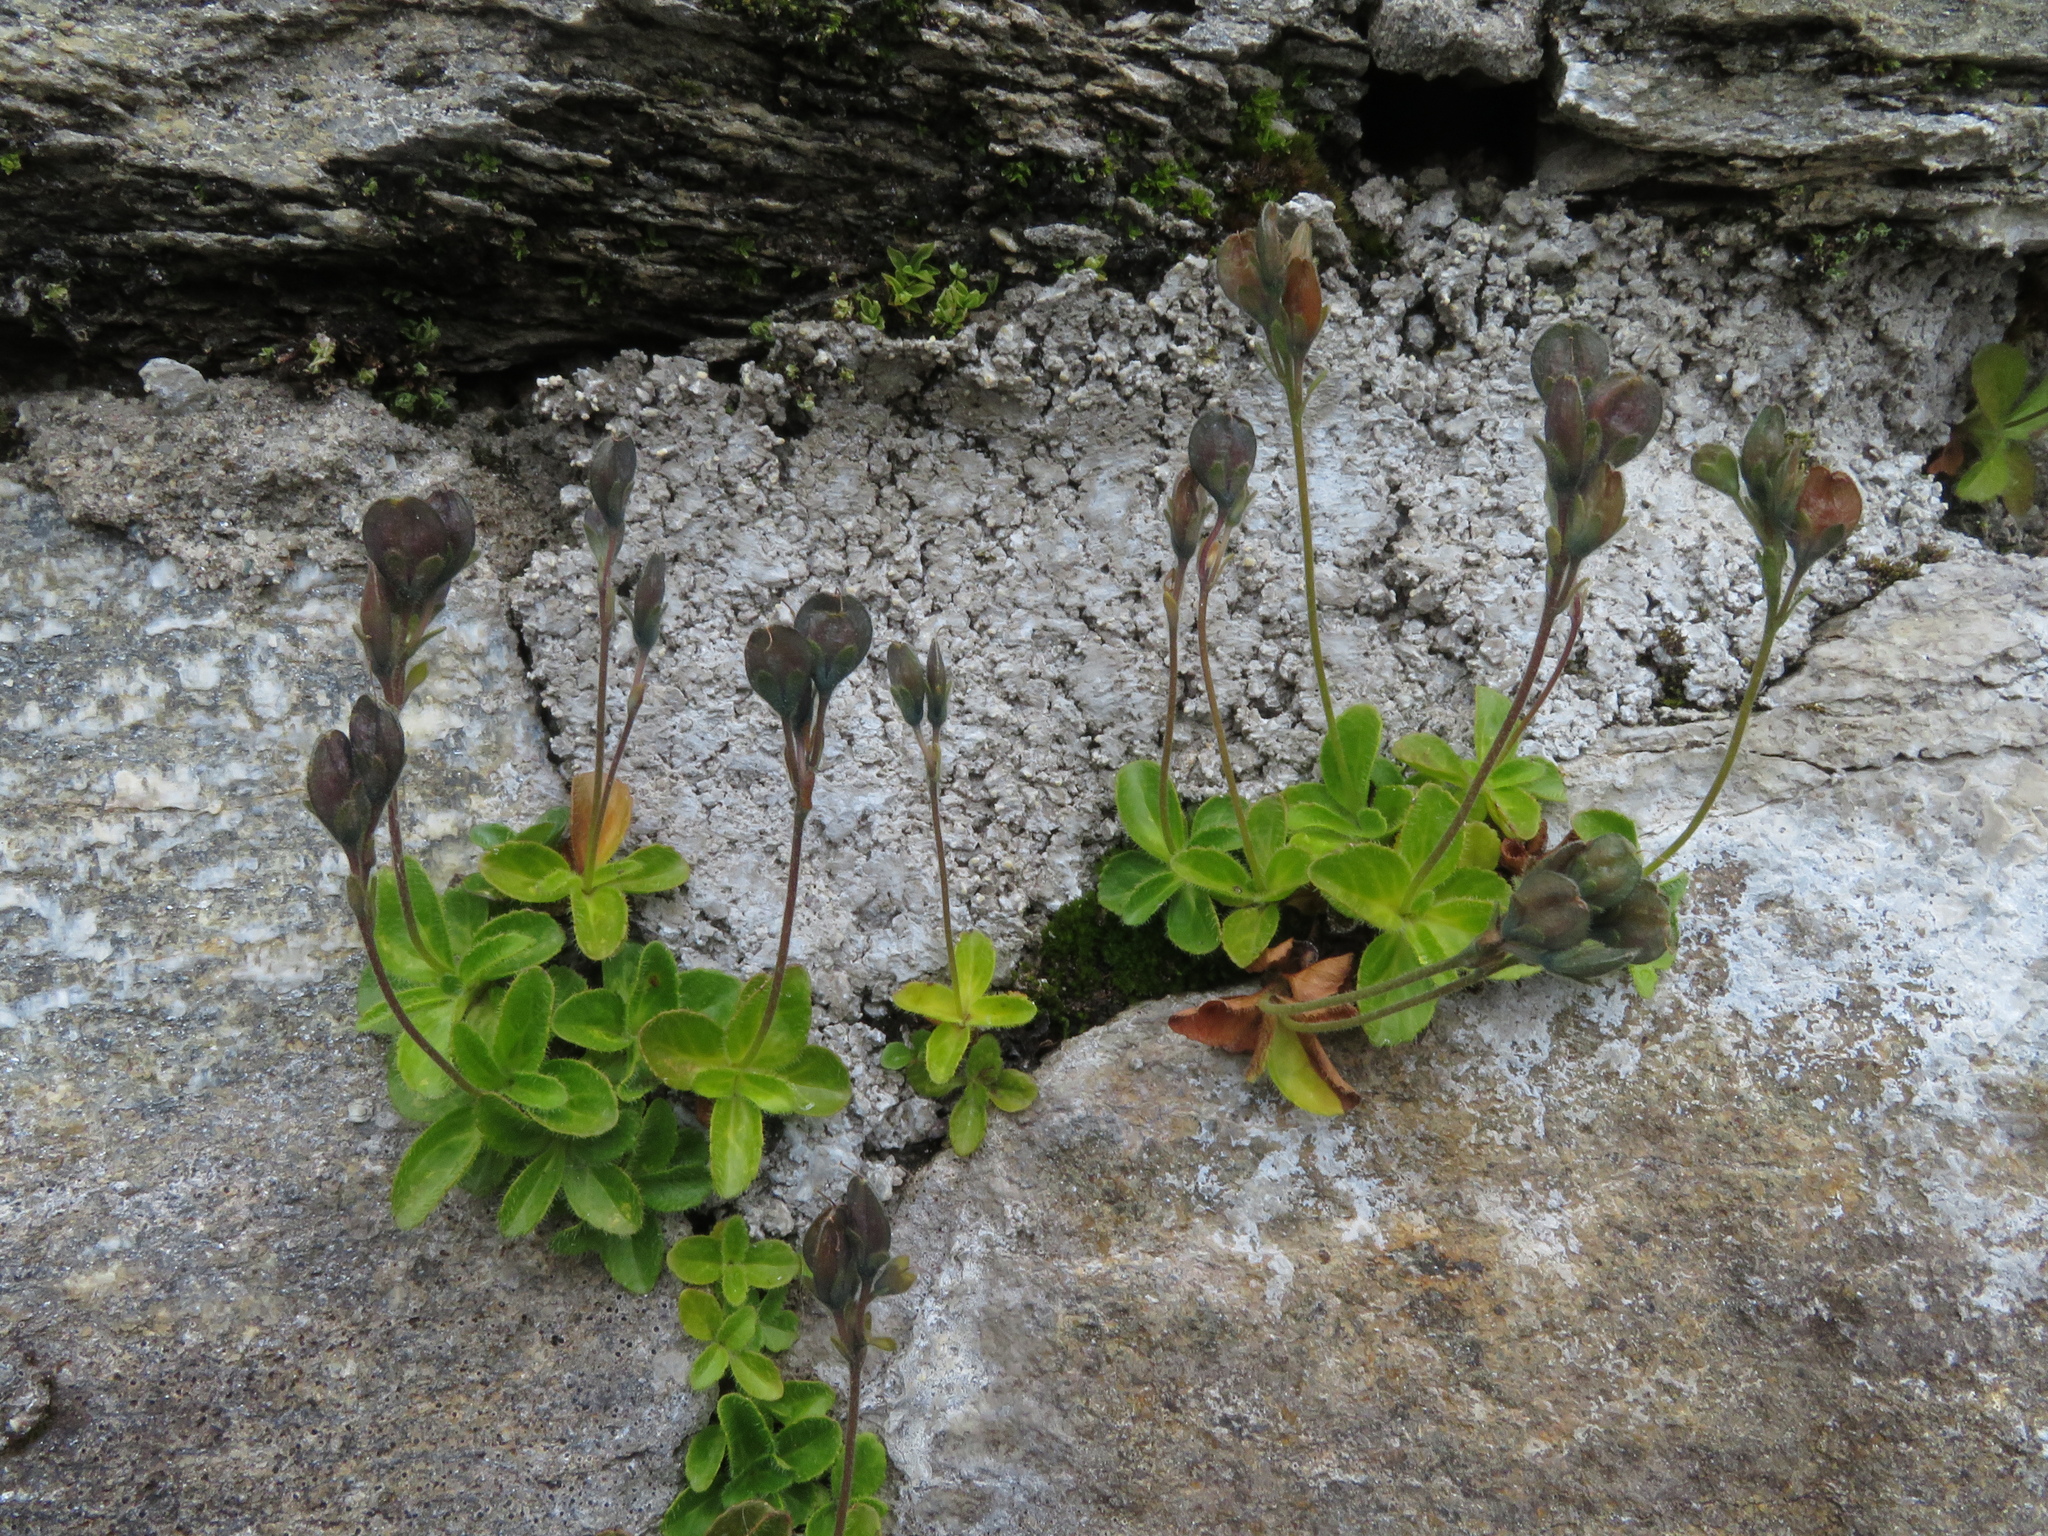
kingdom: Plantae
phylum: Tracheophyta
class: Magnoliopsida
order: Lamiales
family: Plantaginaceae
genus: Veronica
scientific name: Veronica aphylla
